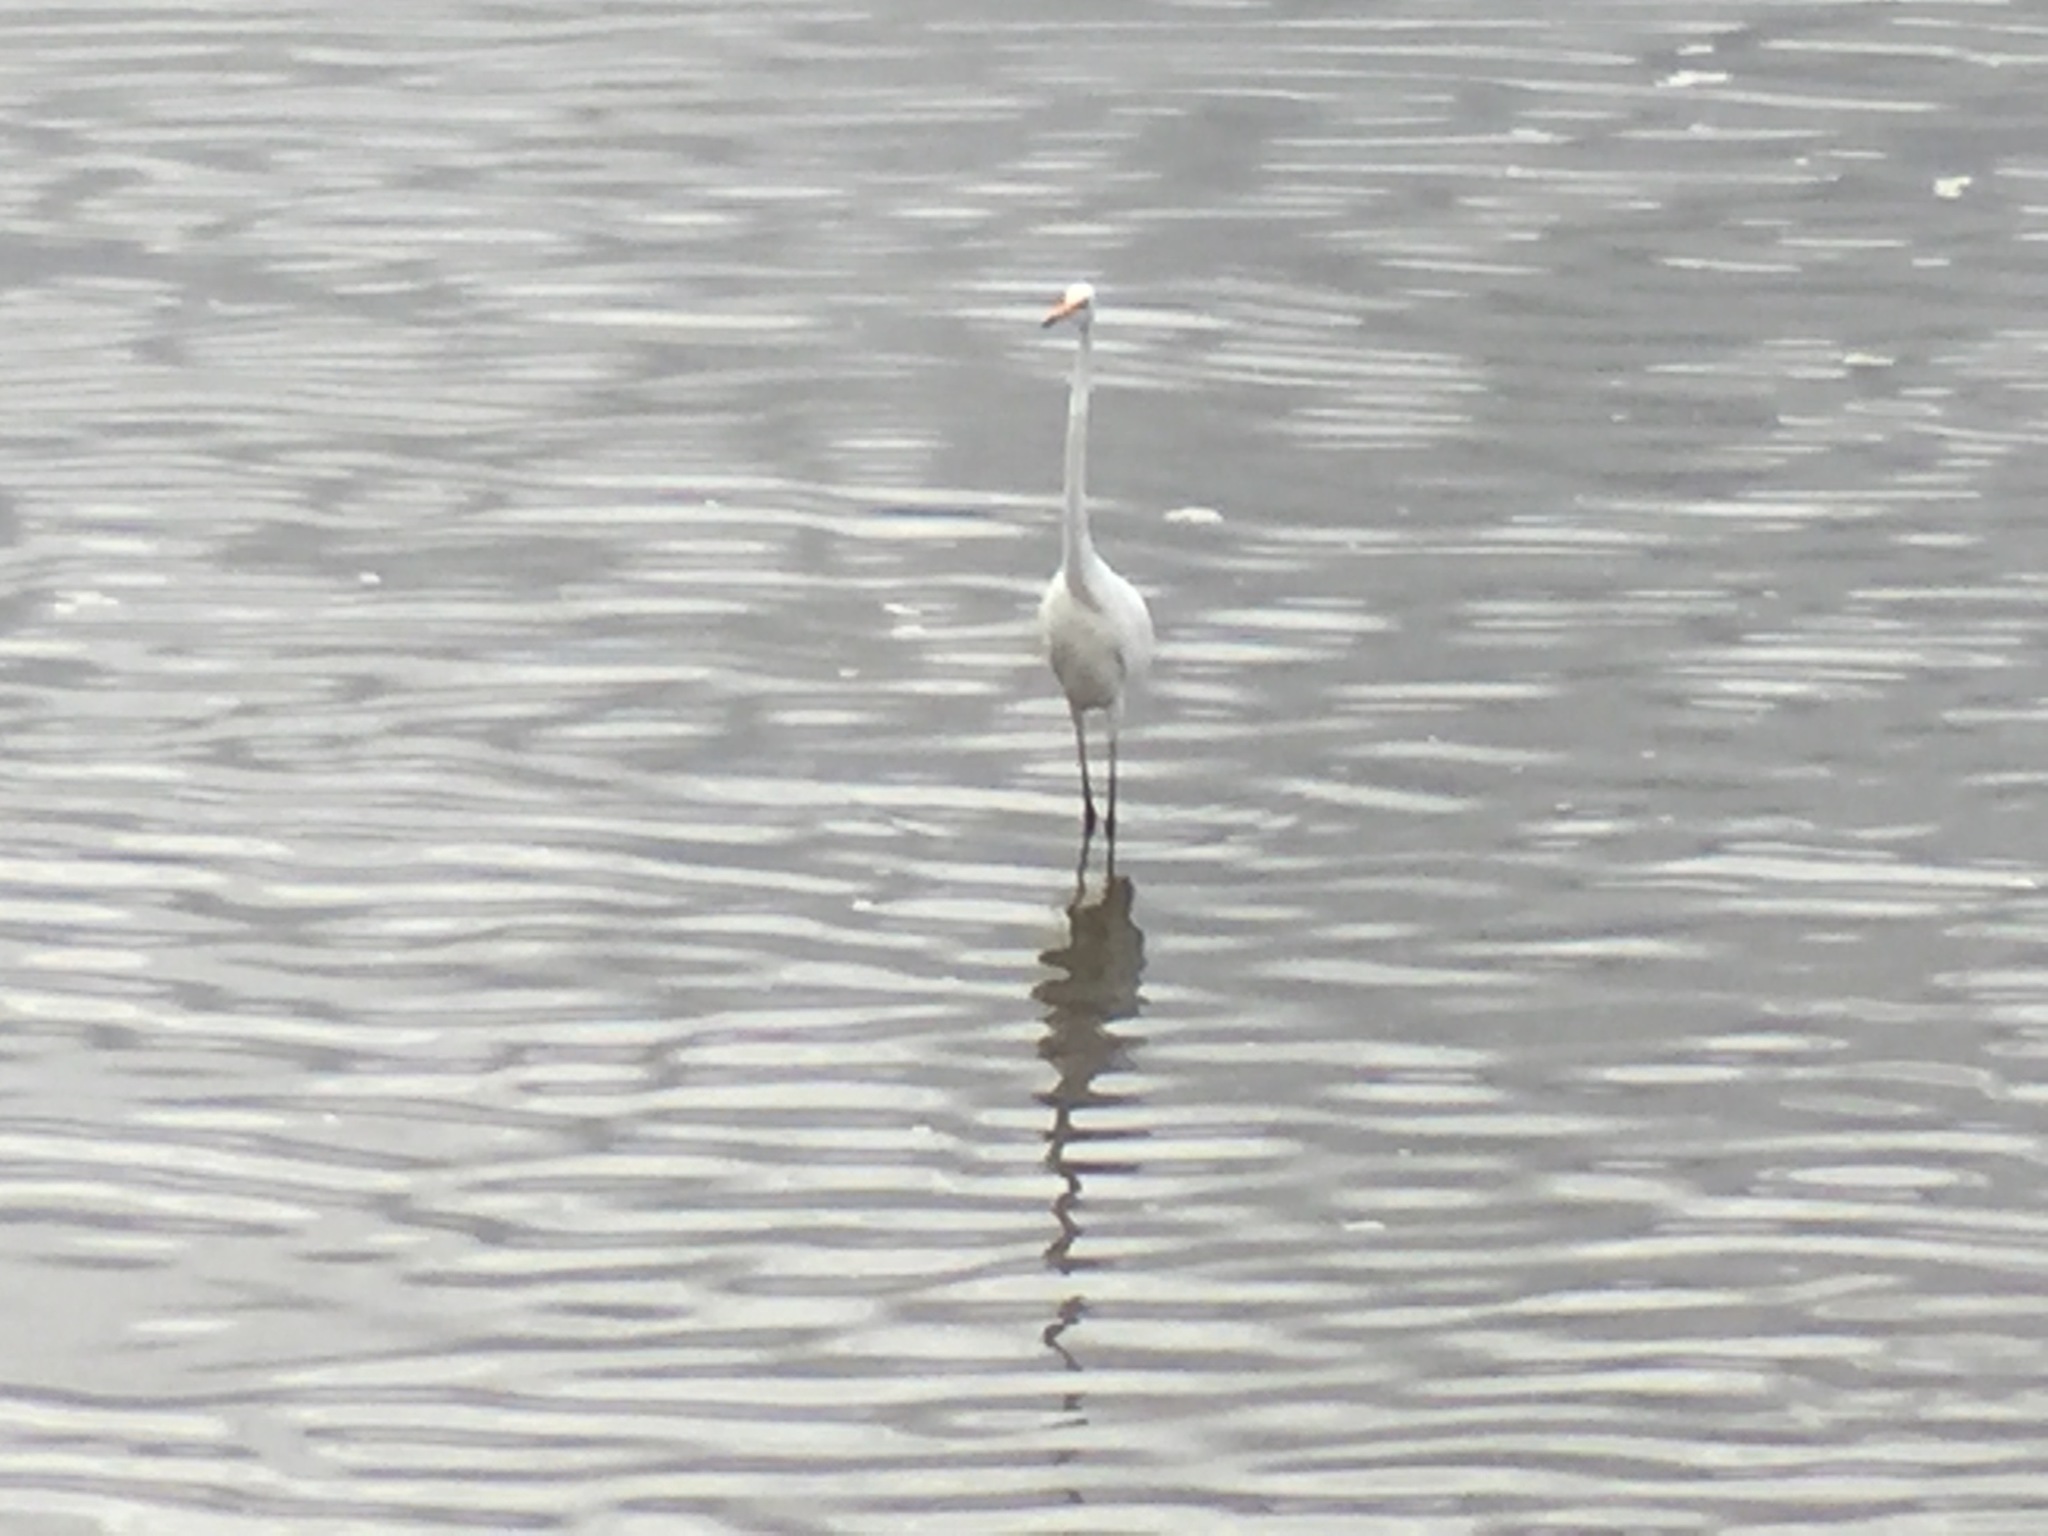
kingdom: Animalia
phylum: Chordata
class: Aves
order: Pelecaniformes
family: Ardeidae
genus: Ardea
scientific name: Ardea alba
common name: Great egret
